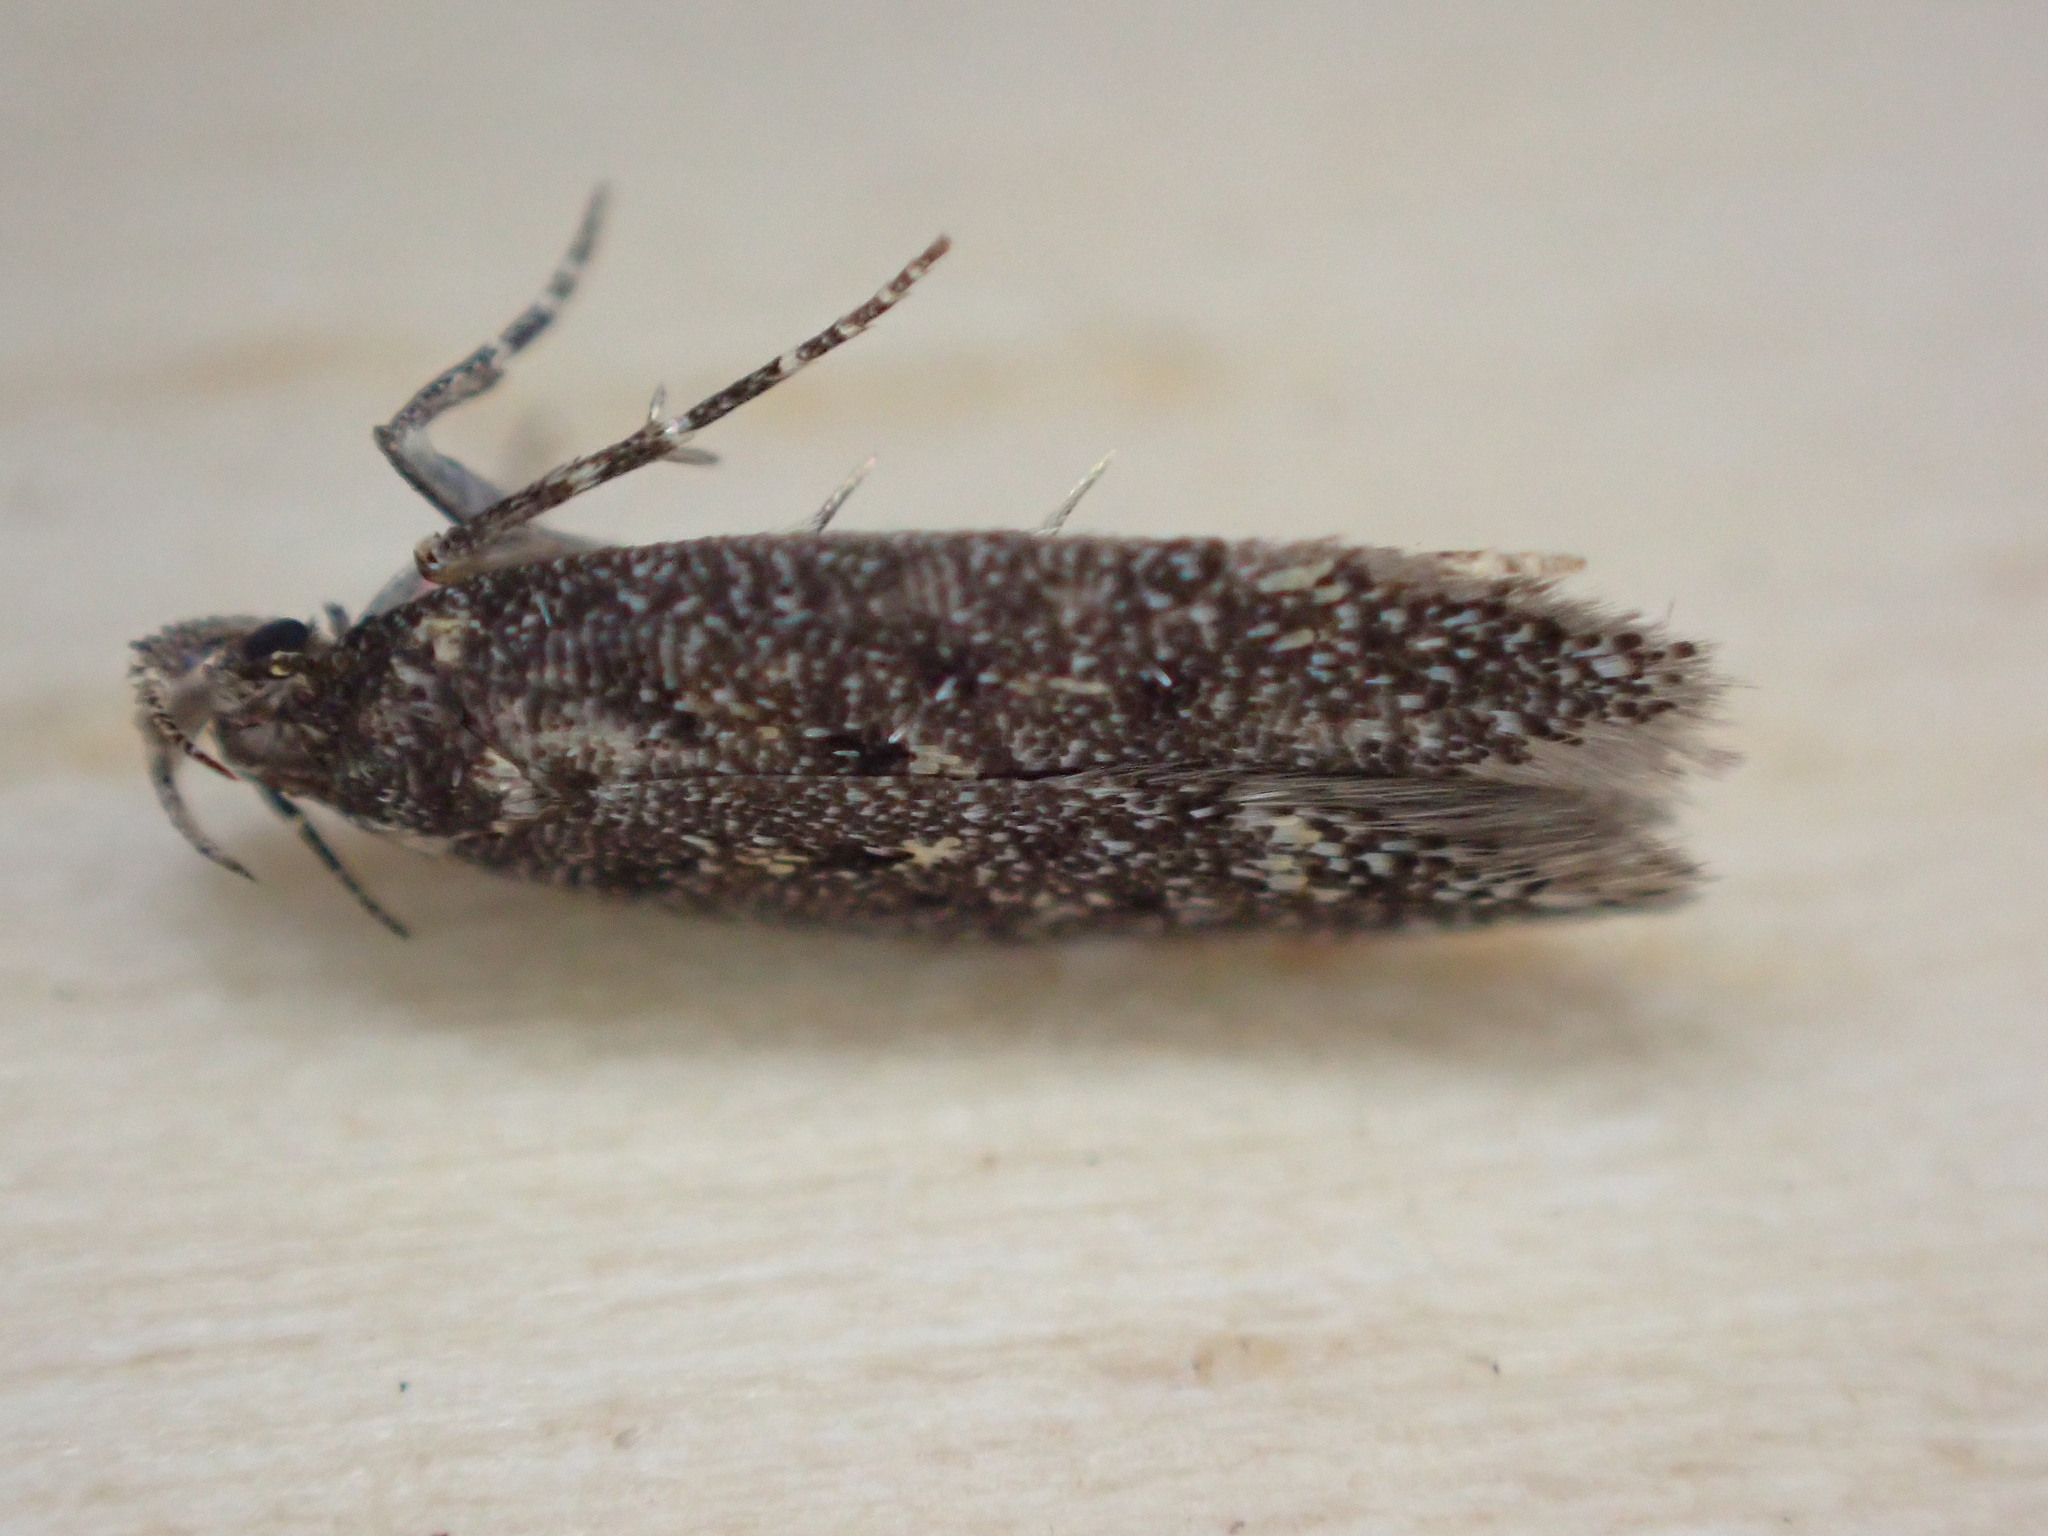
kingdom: Animalia
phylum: Arthropoda
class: Insecta
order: Lepidoptera
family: Gelechiidae
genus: Bryotropha
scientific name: Bryotropha affinis
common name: Dark groundling
